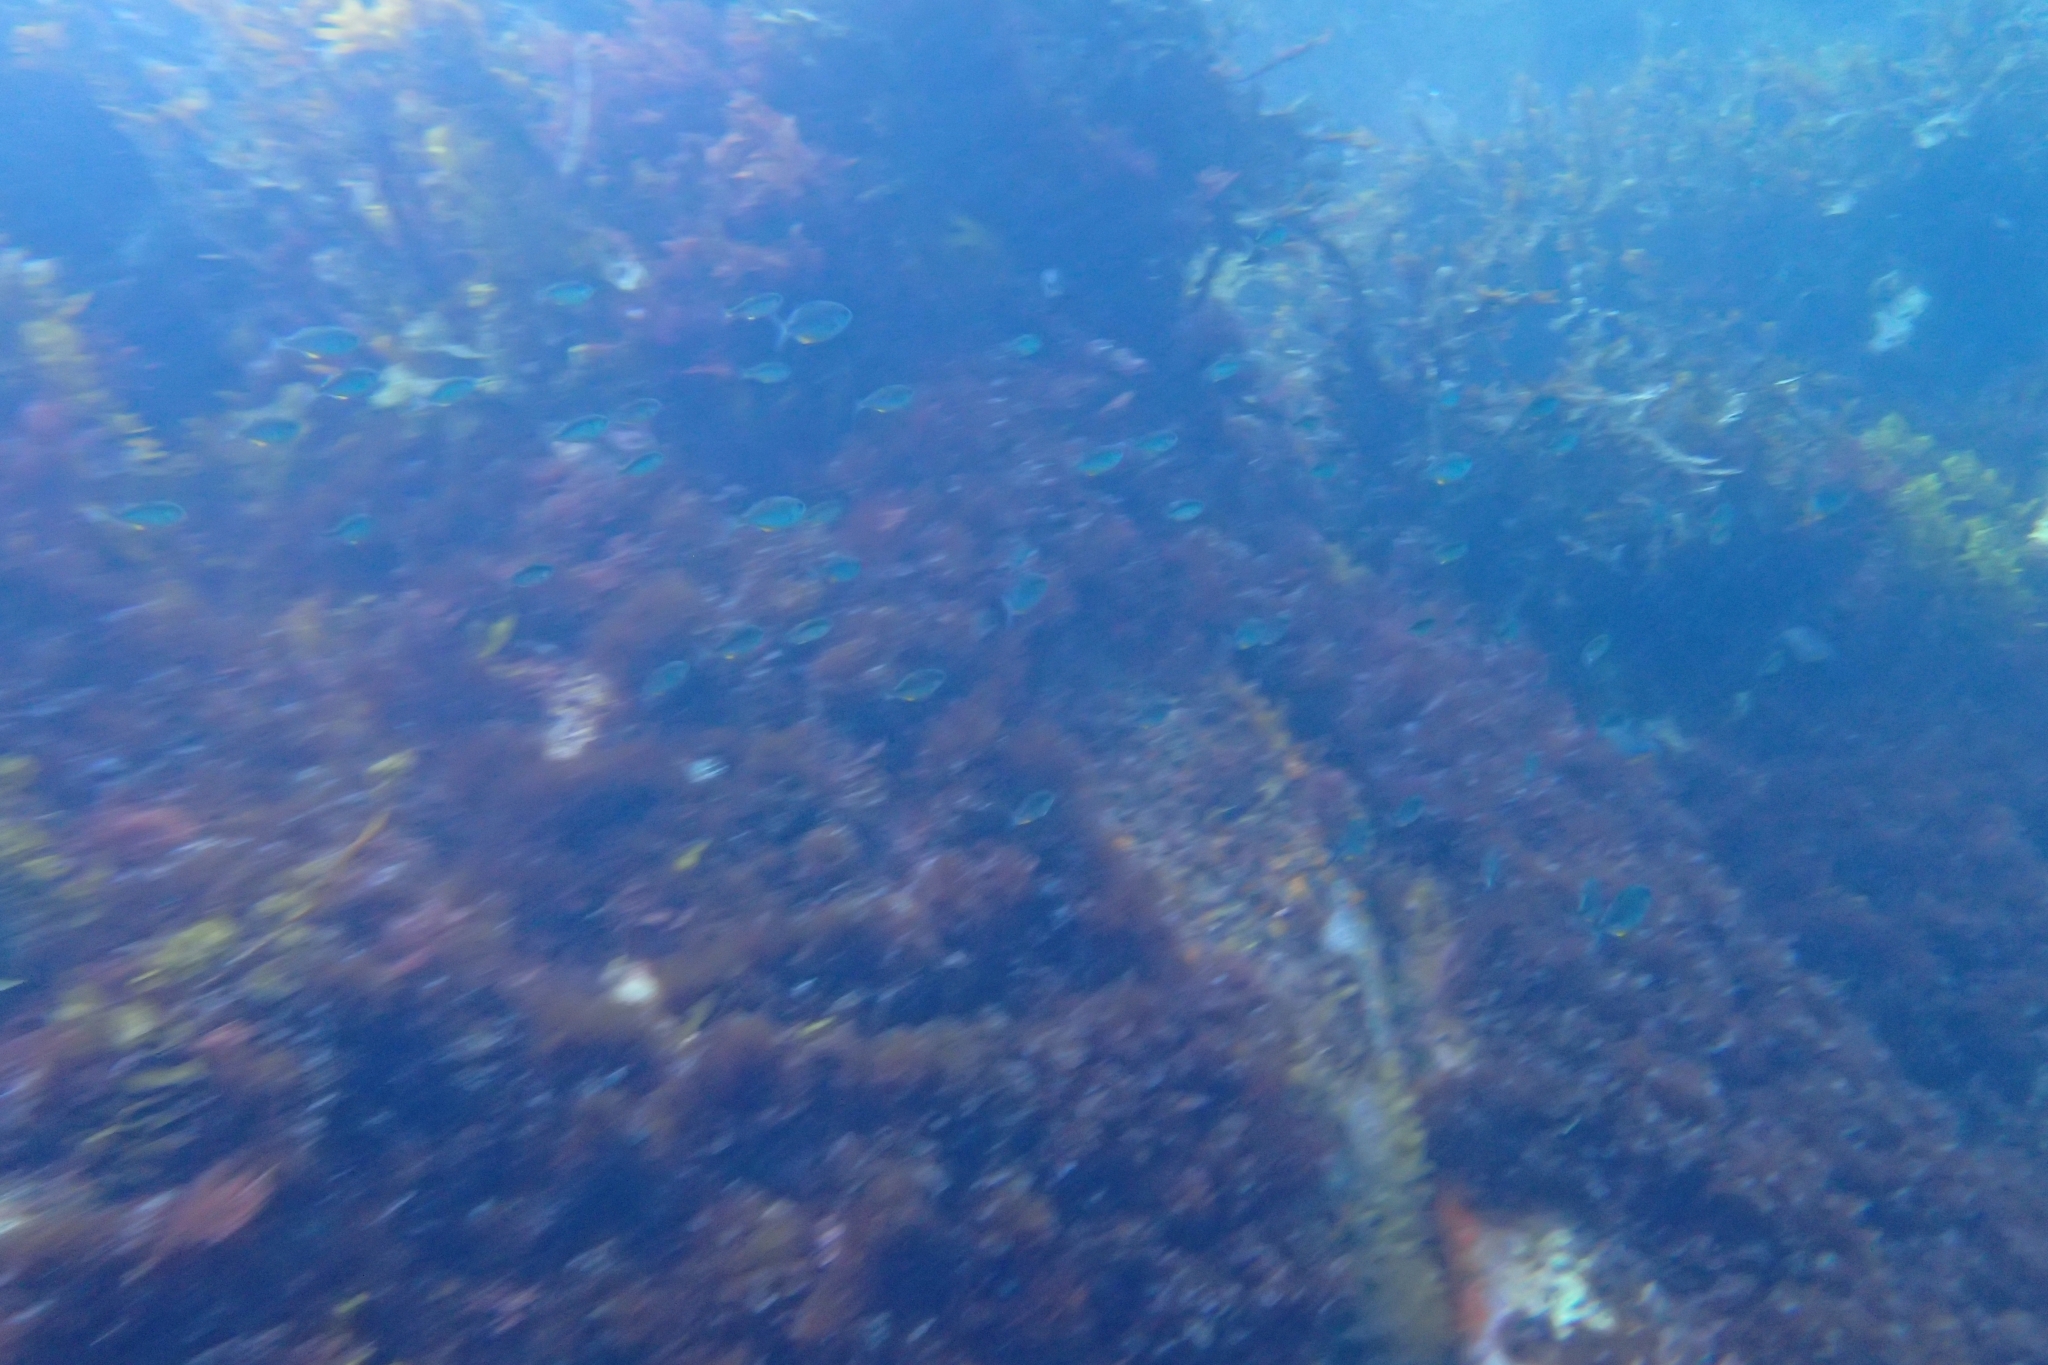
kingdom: Animalia
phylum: Chordata
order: Perciformes
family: Kyphosidae
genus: Scorpis
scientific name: Scorpis violacea
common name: Blue maomao
